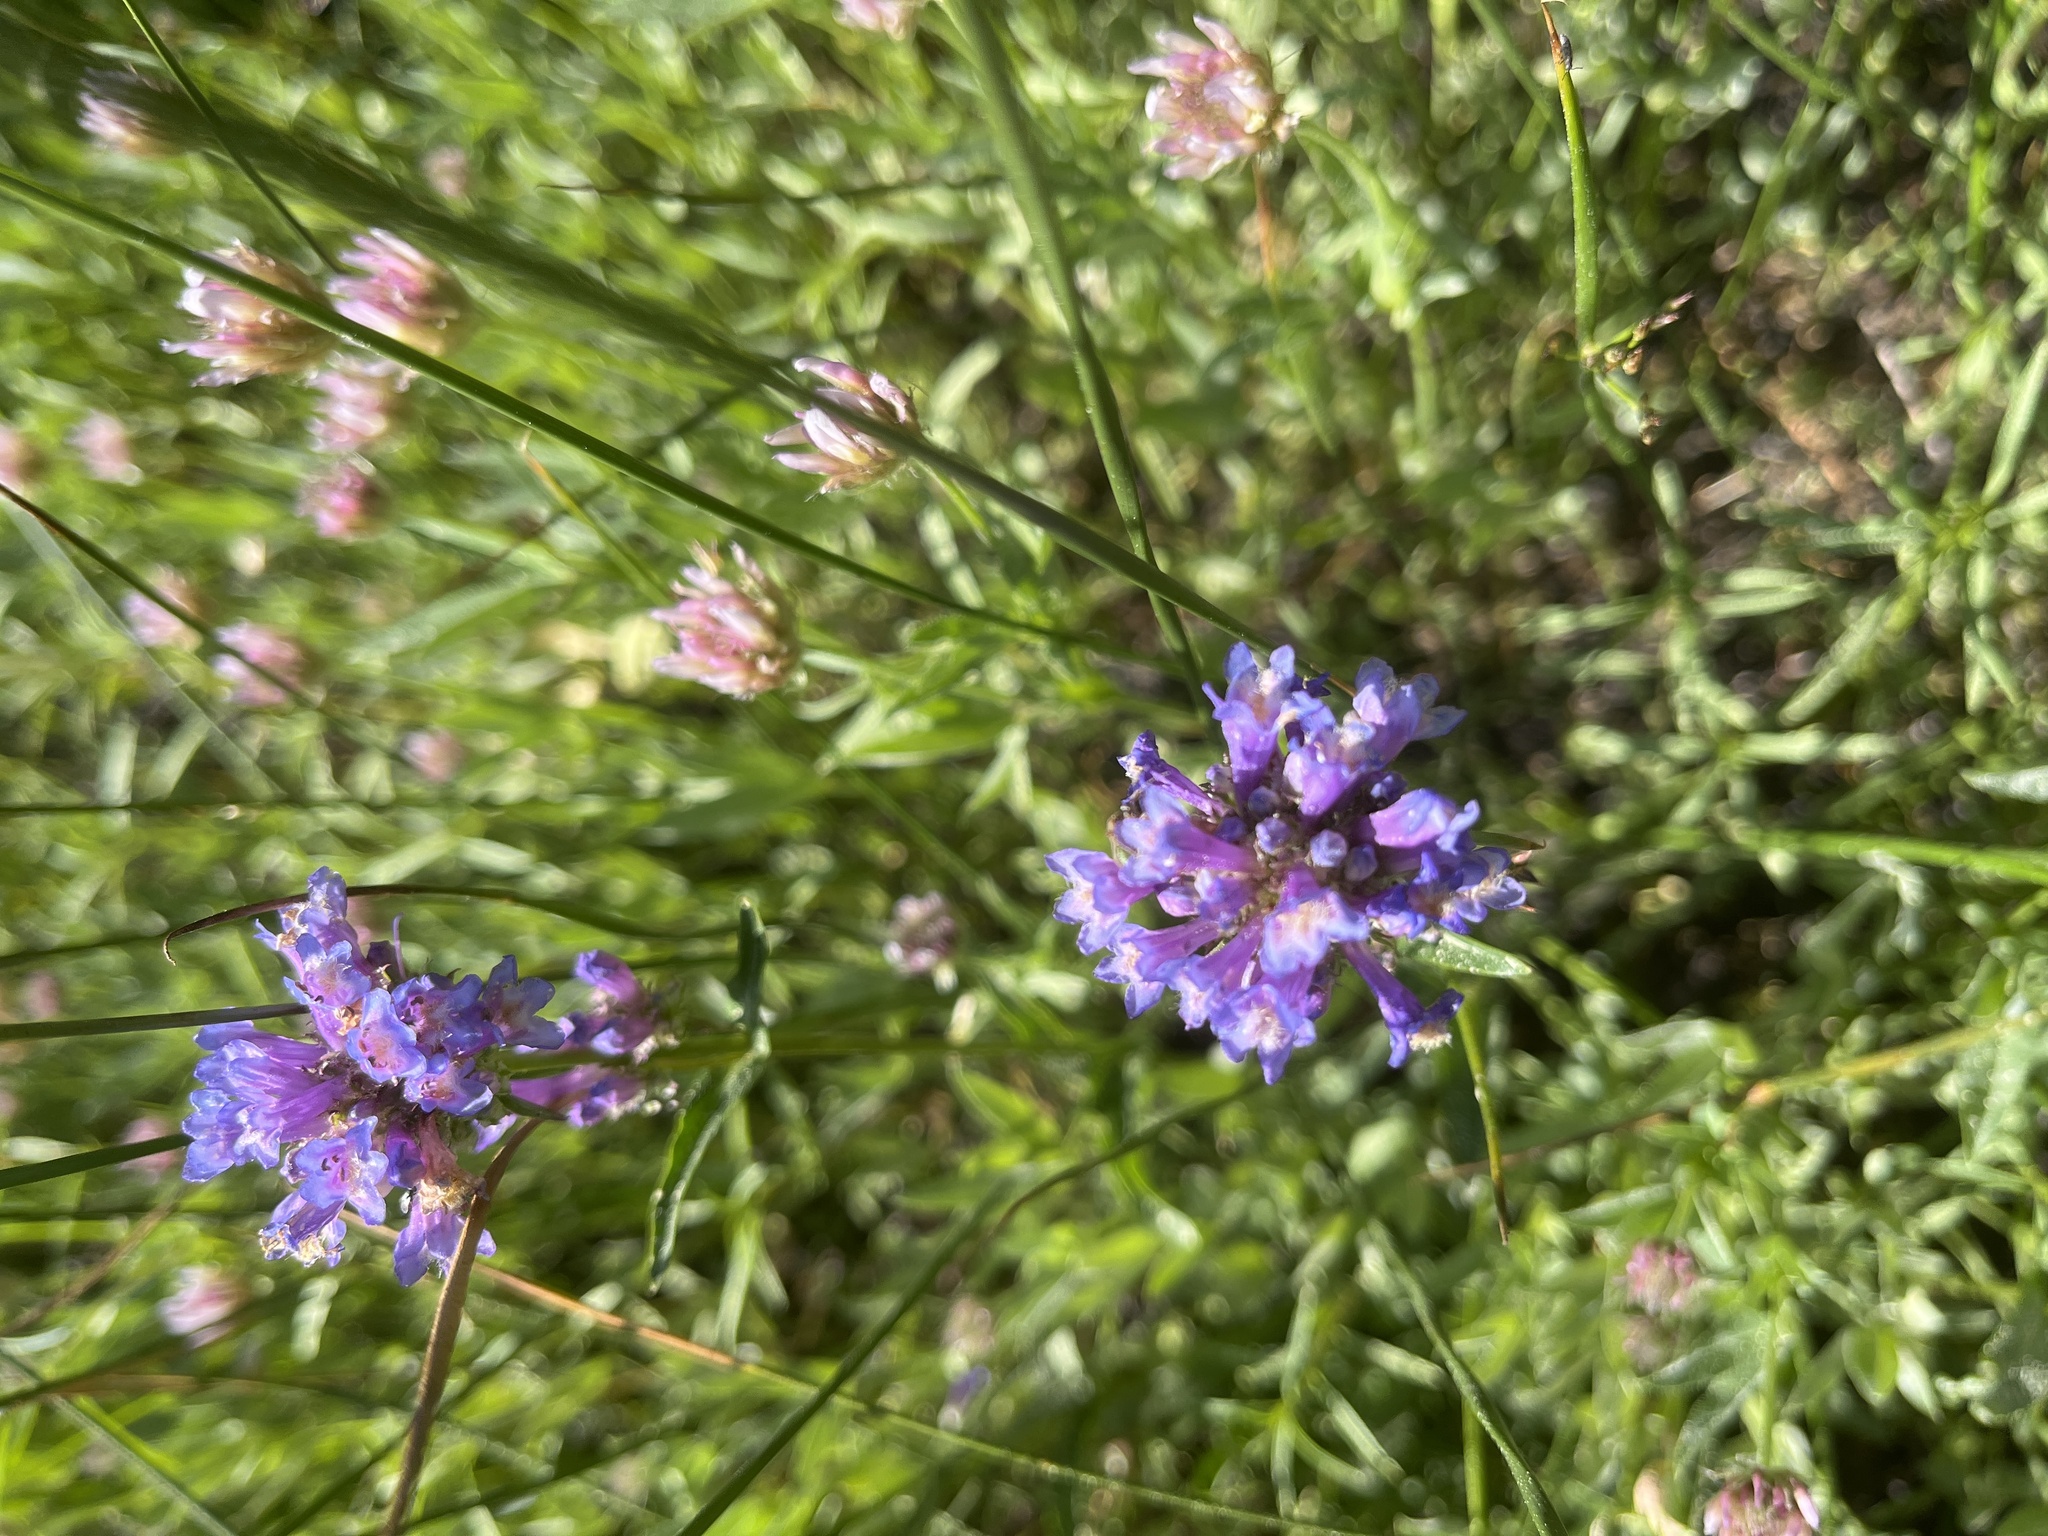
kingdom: Plantae
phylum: Tracheophyta
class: Magnoliopsida
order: Lamiales
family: Plantaginaceae
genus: Penstemon
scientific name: Penstemon rydbergii
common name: Rydberg's beardtongue
